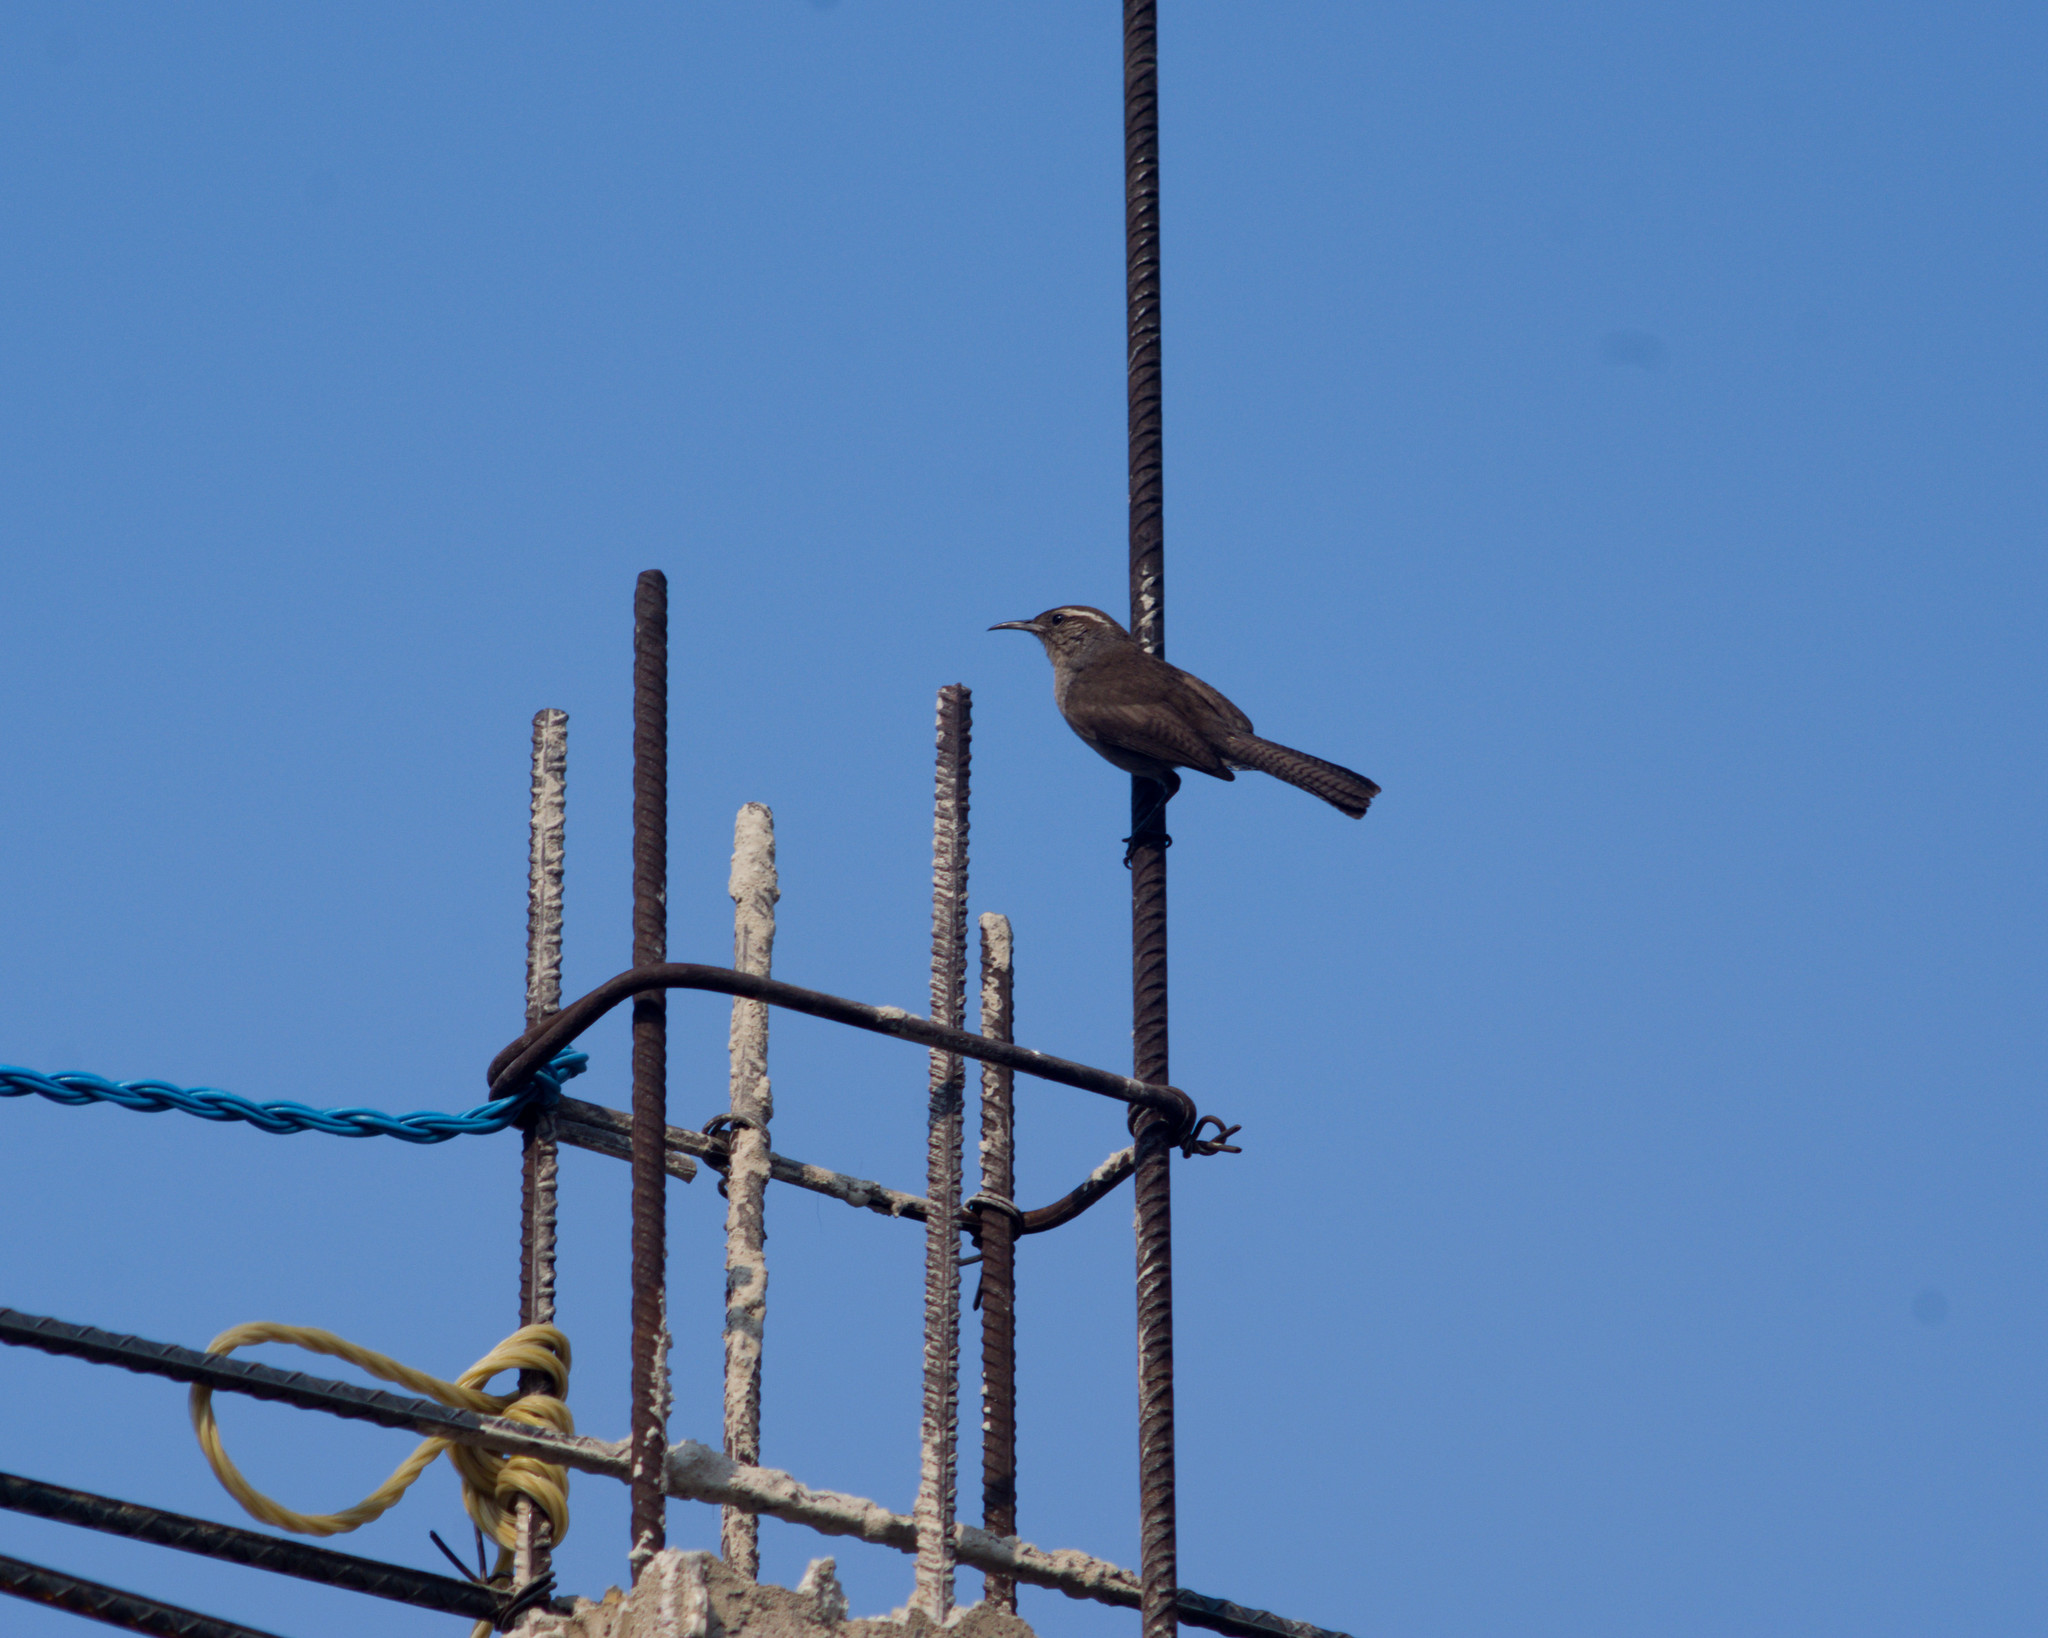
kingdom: Animalia
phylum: Chordata
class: Aves
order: Passeriformes
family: Troglodytidae
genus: Thryomanes
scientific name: Thryomanes bewickii
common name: Bewick's wren
